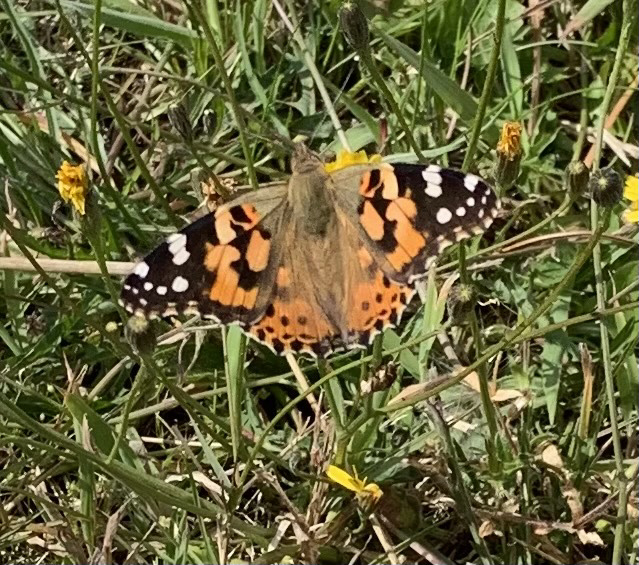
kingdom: Animalia
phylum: Arthropoda
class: Insecta
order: Lepidoptera
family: Nymphalidae
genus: Vanessa
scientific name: Vanessa cardui
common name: Painted lady
